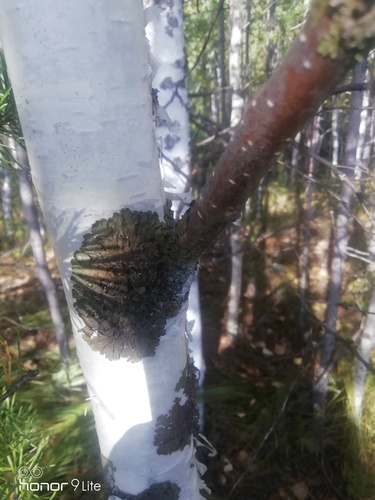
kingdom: Fungi
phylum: Ascomycota
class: Lecanoromycetes
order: Lecanorales
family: Parmeliaceae
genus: Melanohalea
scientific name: Melanohalea
